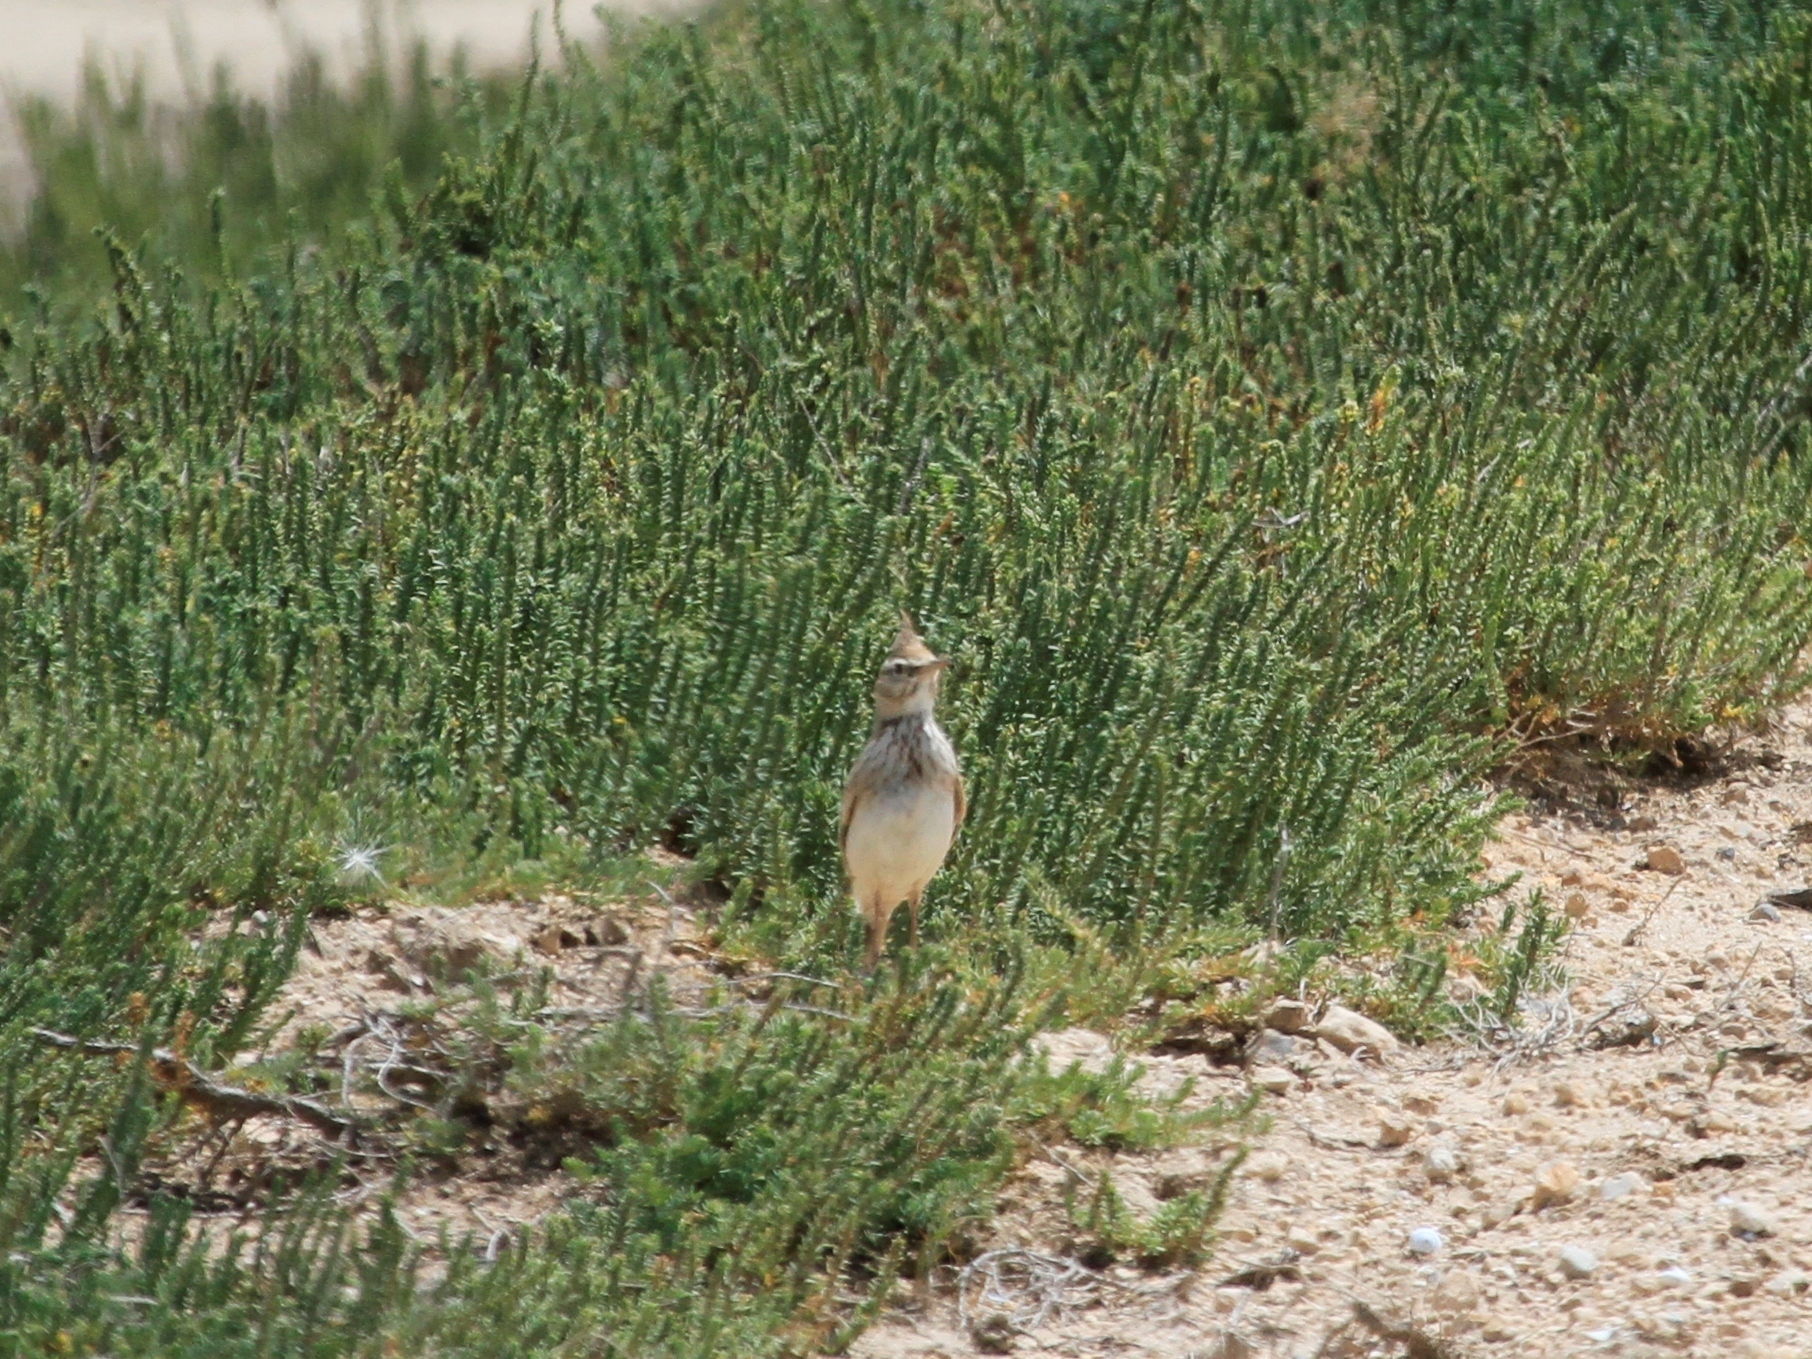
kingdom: Animalia
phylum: Chordata
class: Aves
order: Passeriformes
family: Alaudidae
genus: Galerida
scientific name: Galerida cristata
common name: Crested lark
